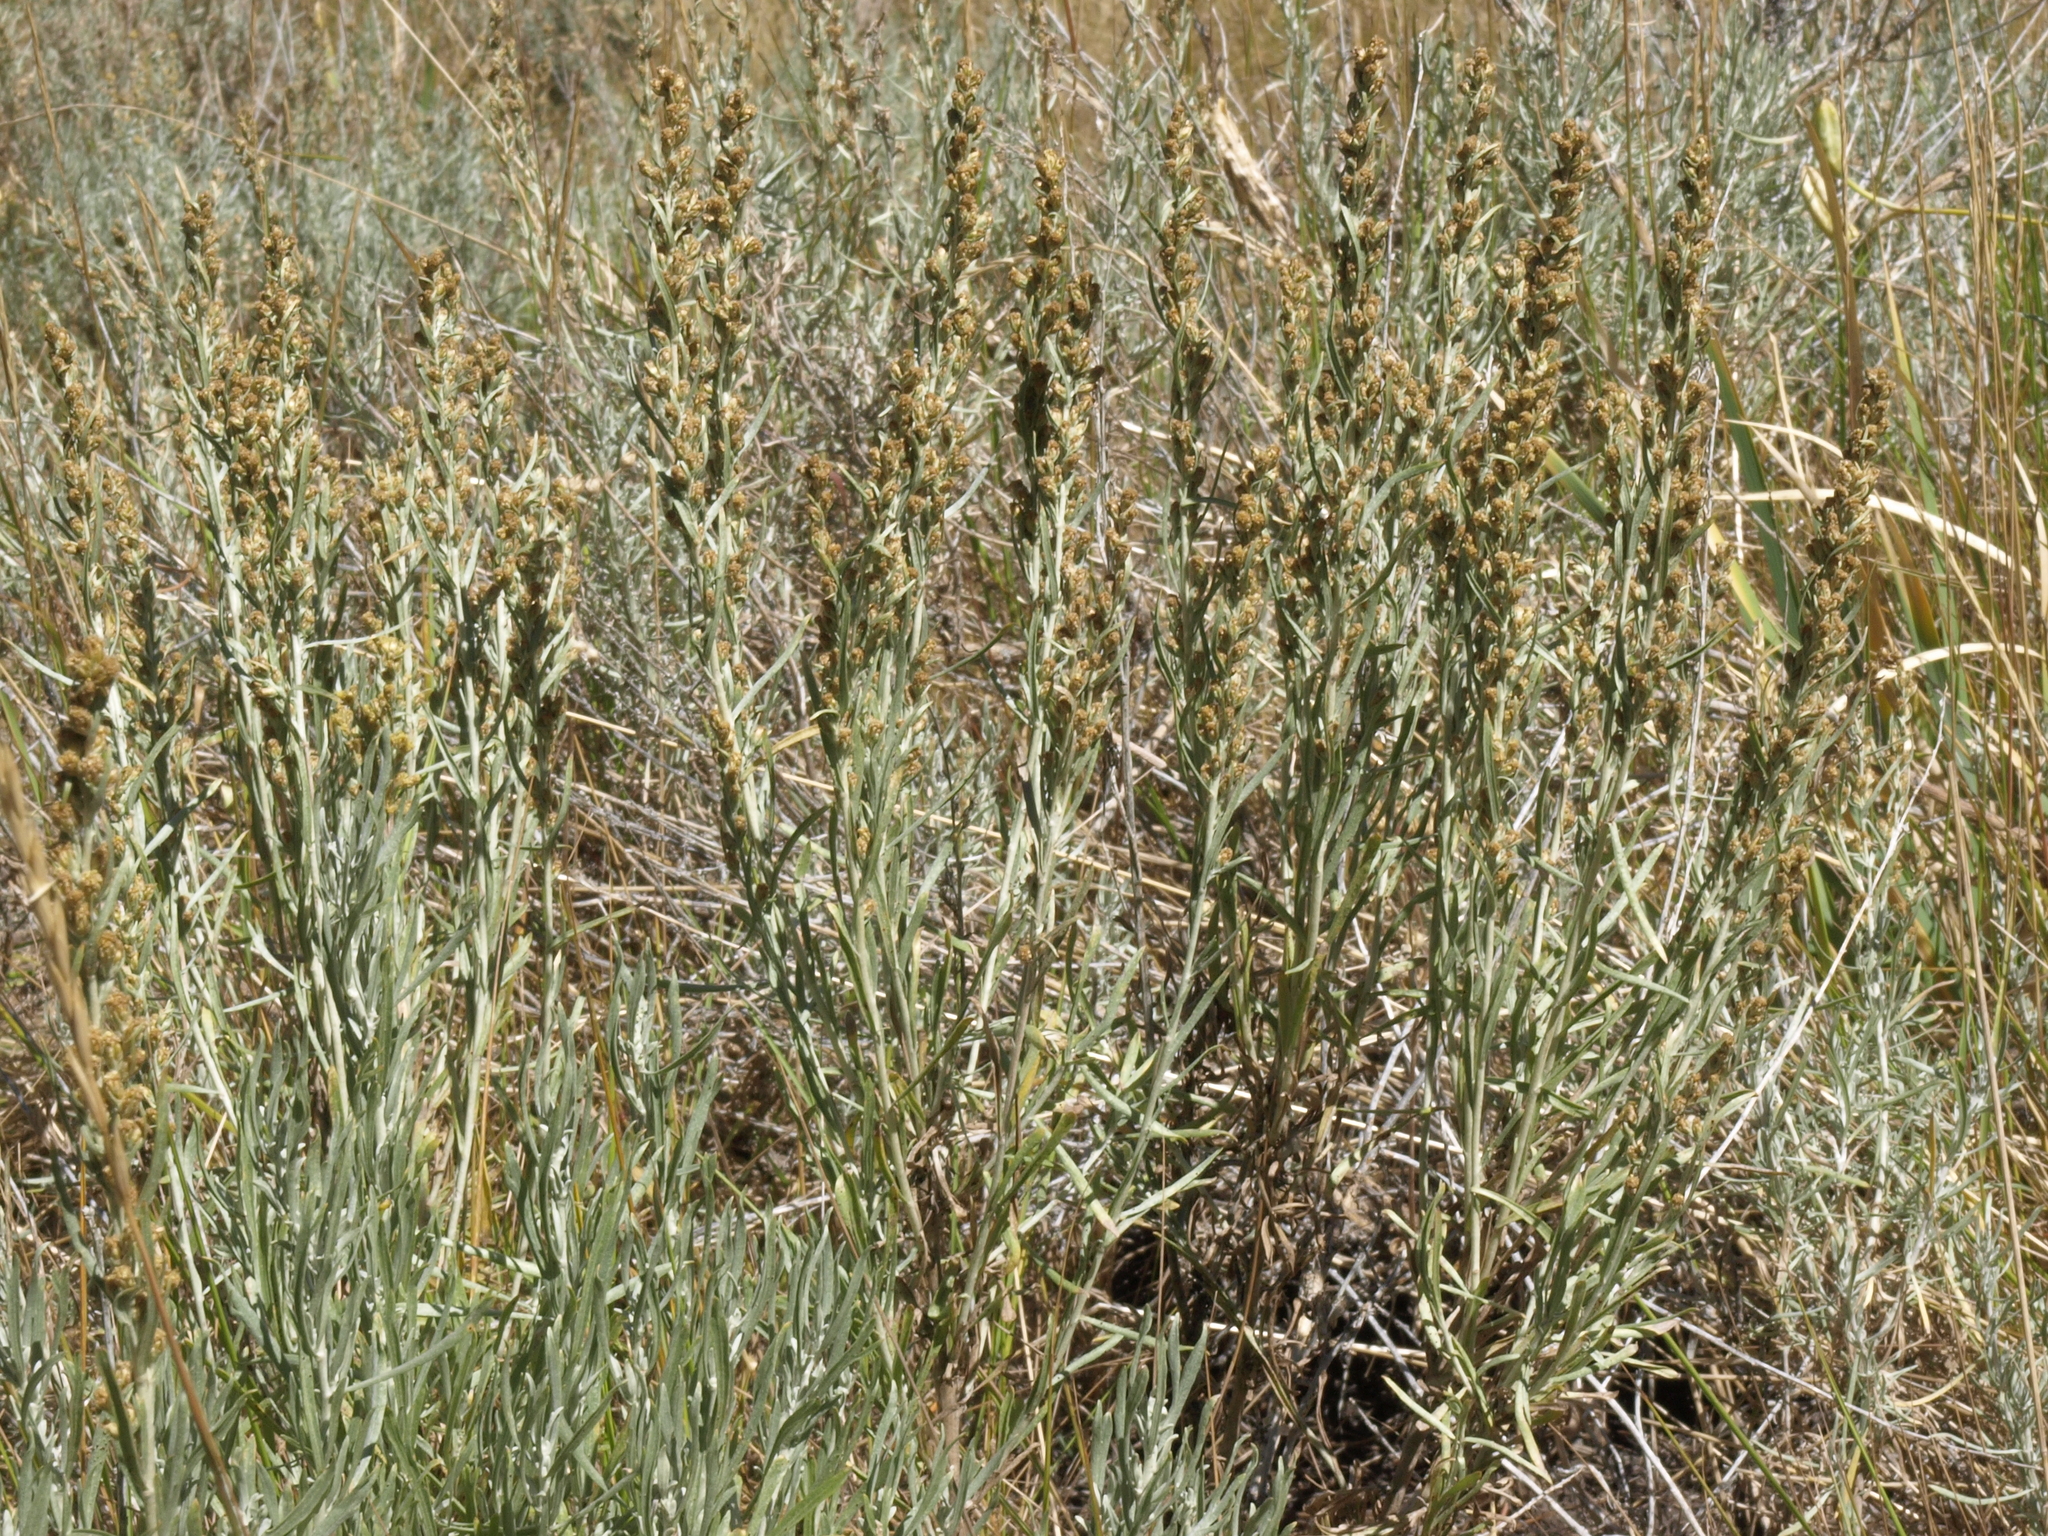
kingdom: Plantae
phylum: Tracheophyta
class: Magnoliopsida
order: Asterales
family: Asteraceae
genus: Artemisia
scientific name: Artemisia cana
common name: Silver sagebrush
